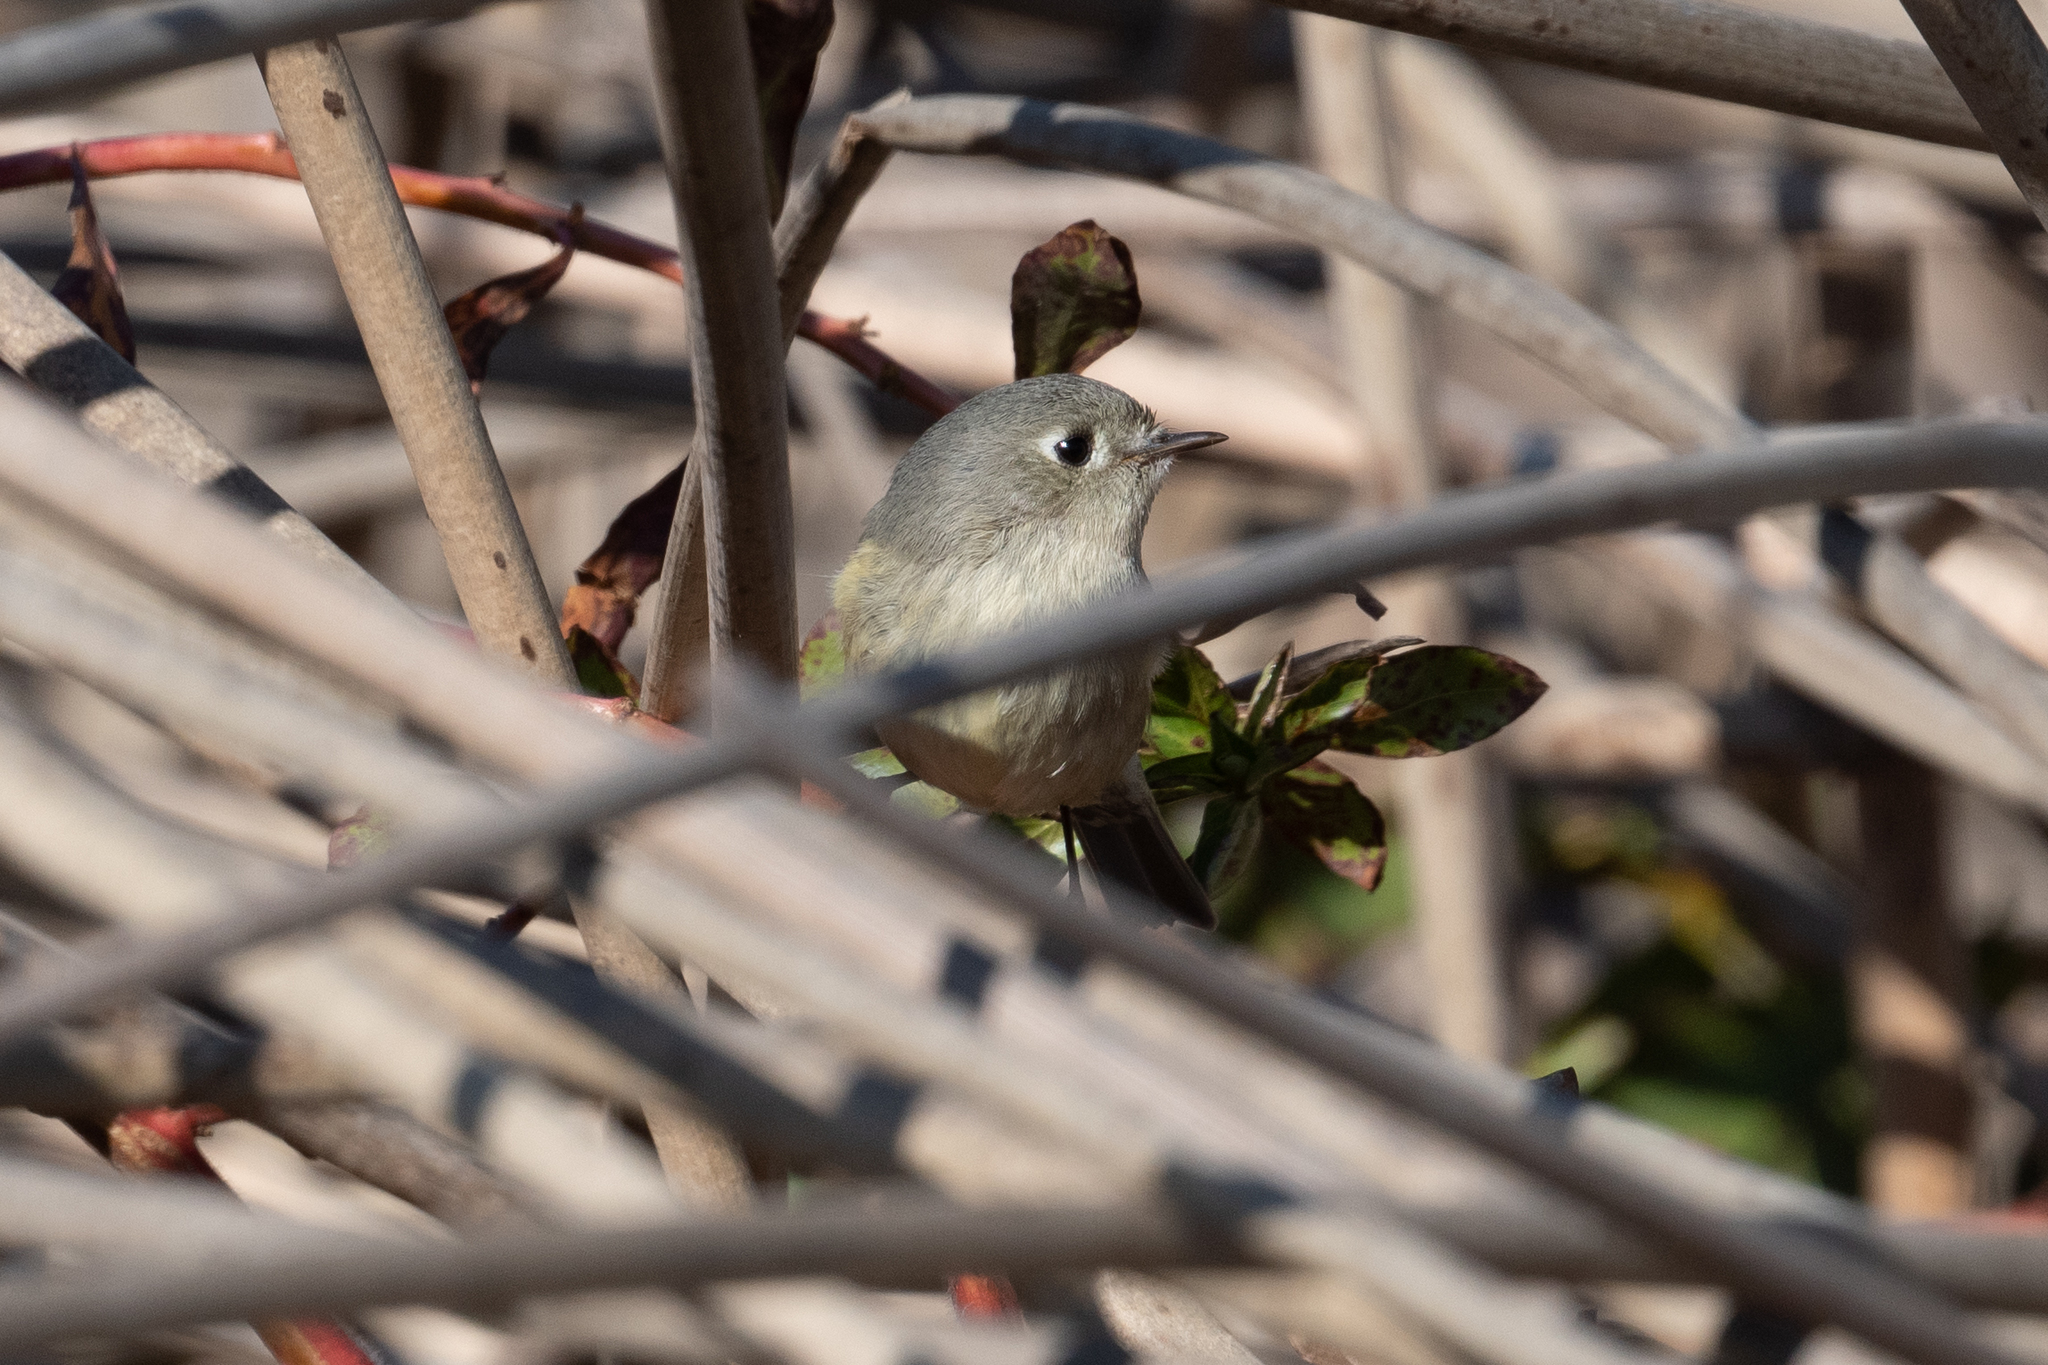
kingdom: Animalia
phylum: Chordata
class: Aves
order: Passeriformes
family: Regulidae
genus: Regulus
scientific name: Regulus calendula
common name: Ruby-crowned kinglet
